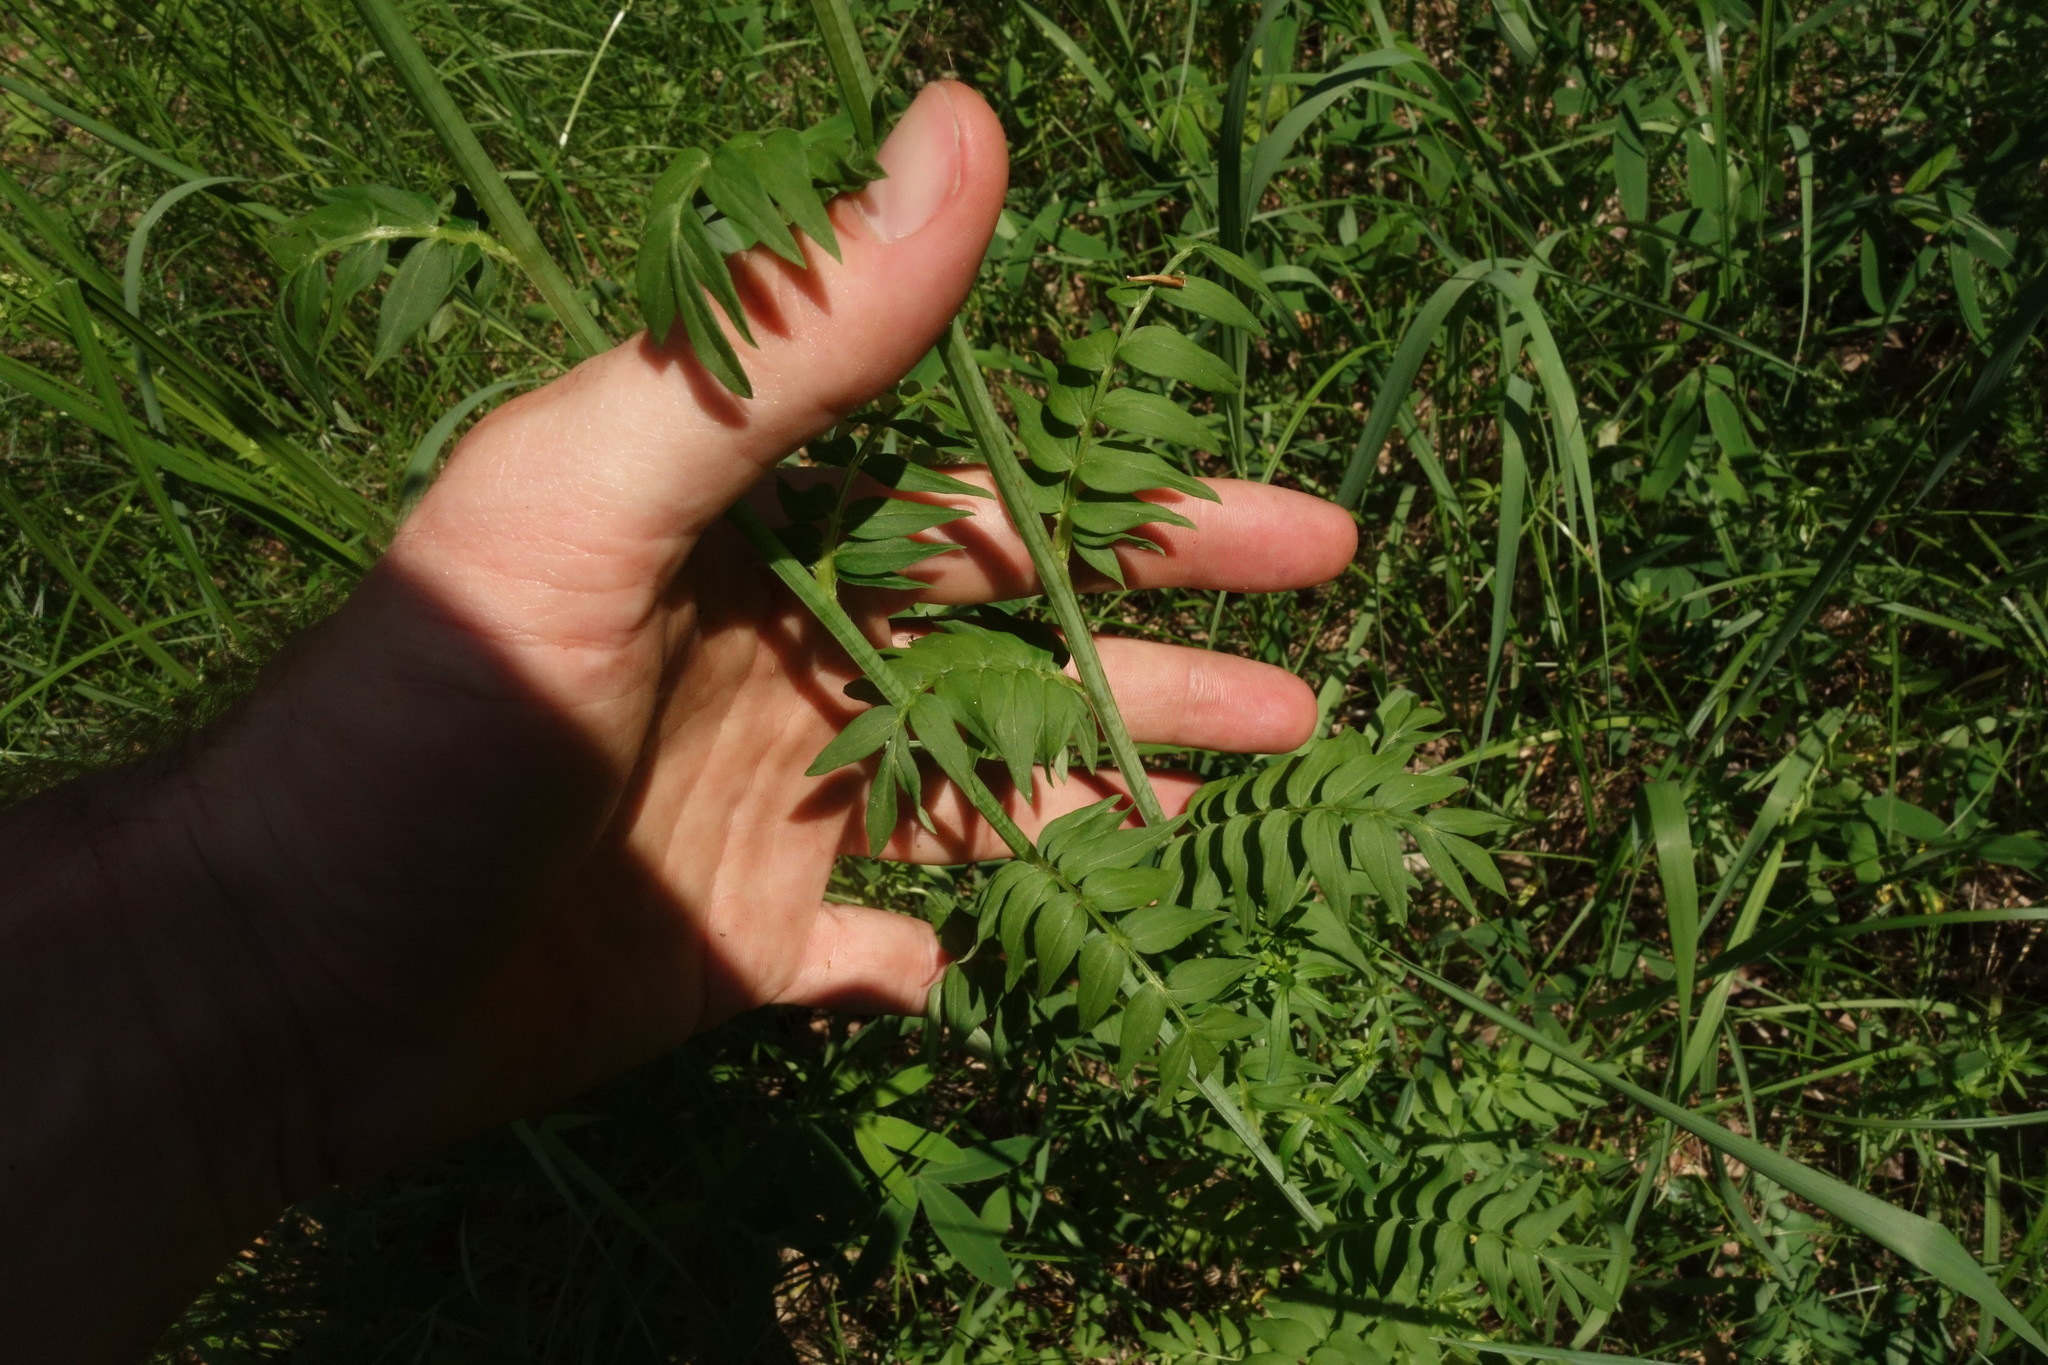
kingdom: Plantae
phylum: Tracheophyta
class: Magnoliopsida
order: Ericales
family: Polemoniaceae
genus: Polemonium
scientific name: Polemonium caeruleum
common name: Jacob's-ladder
